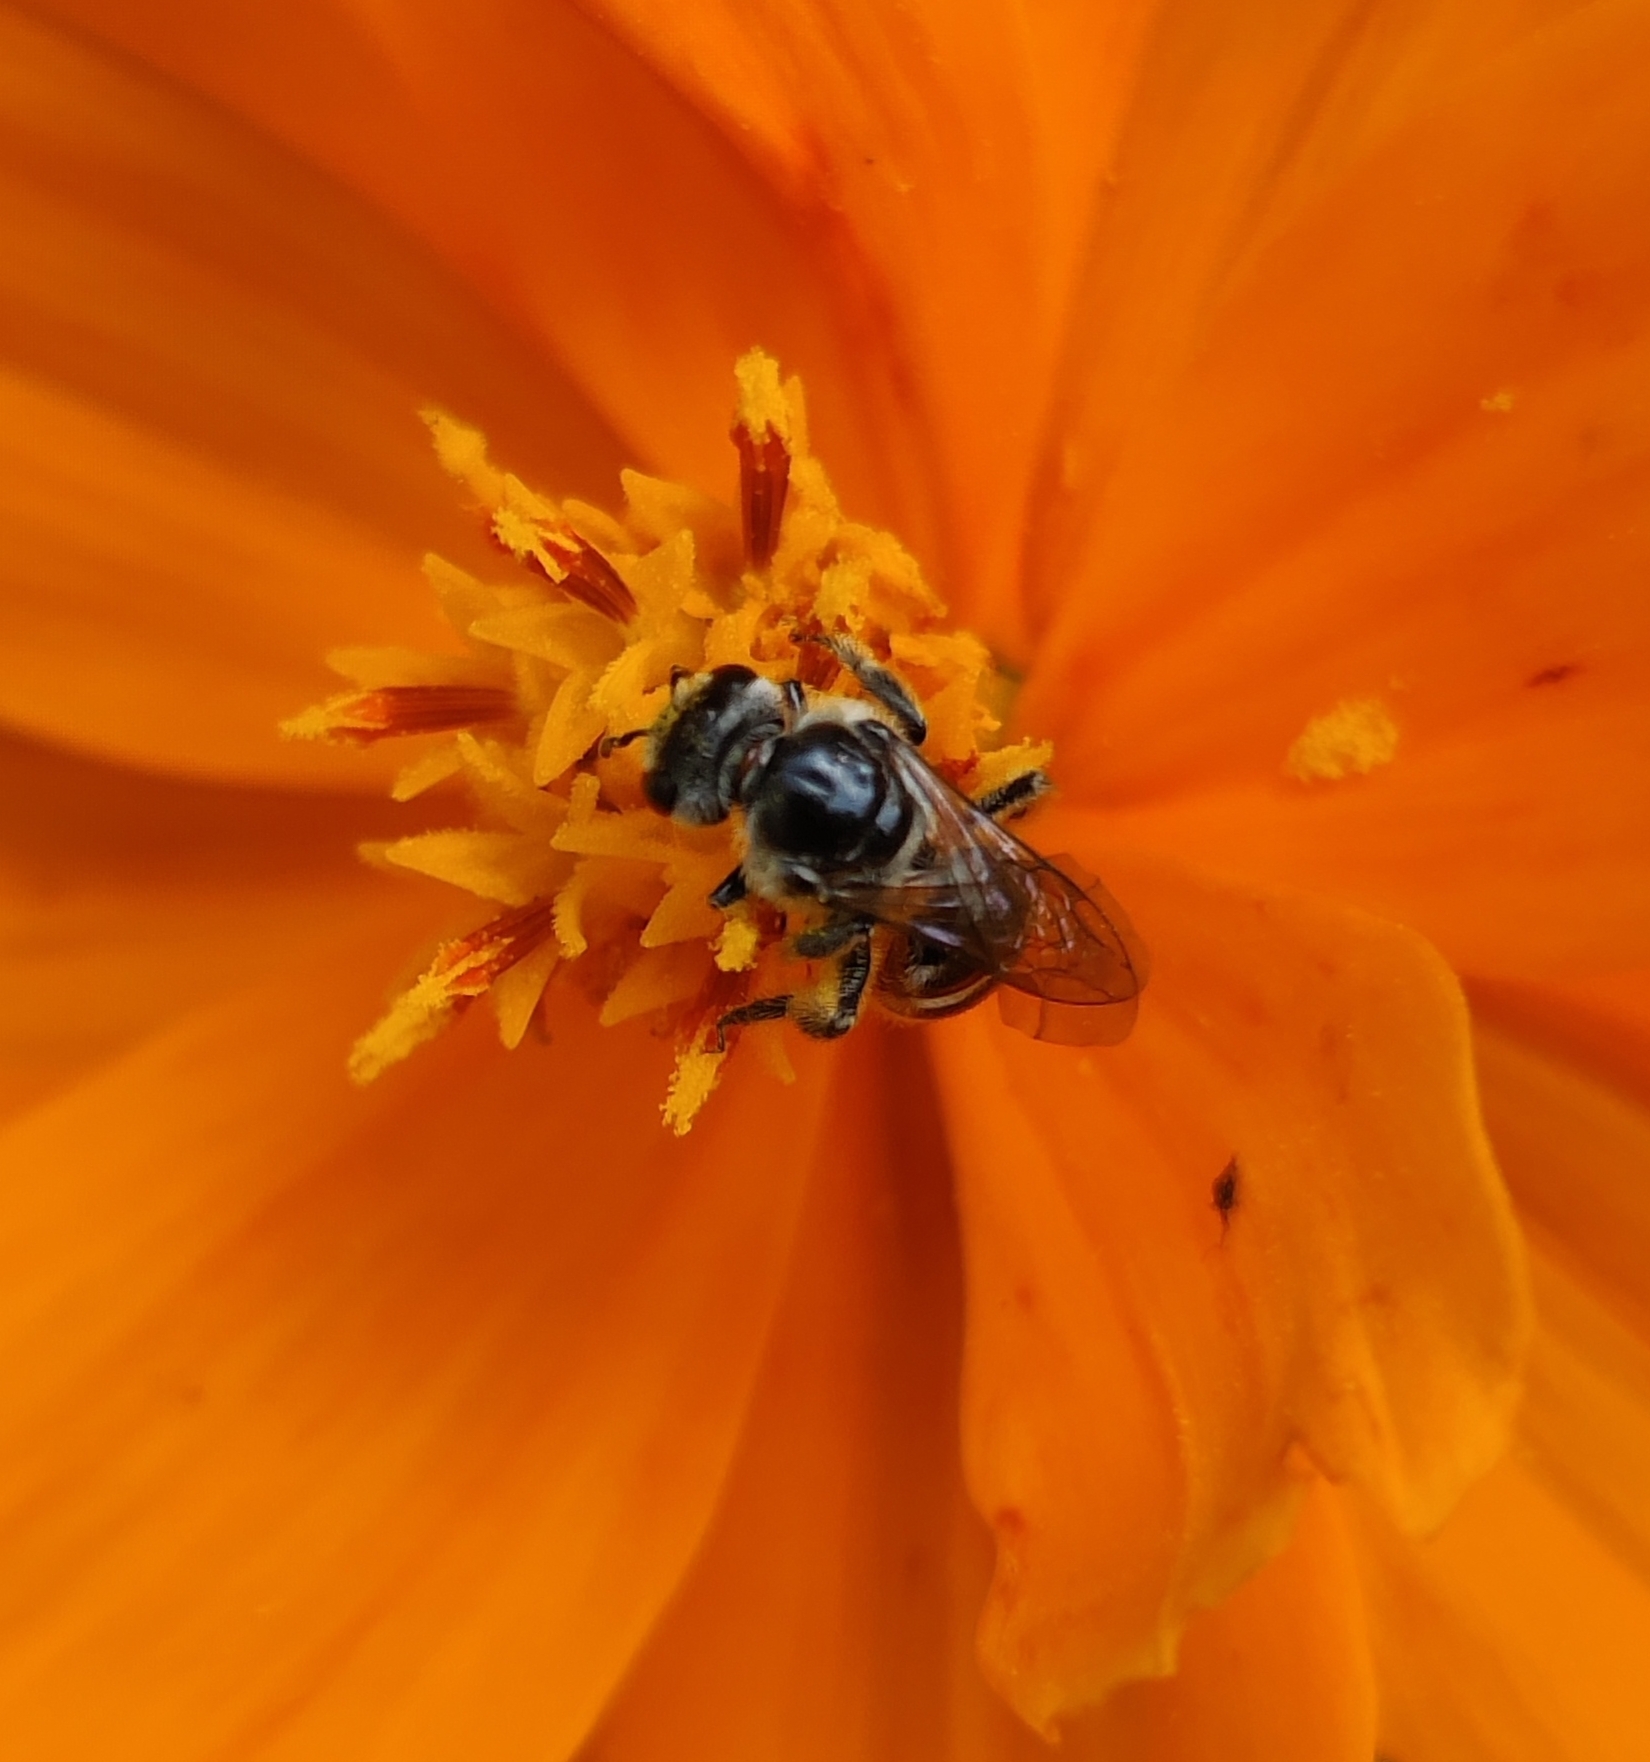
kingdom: Animalia
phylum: Arthropoda
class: Insecta
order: Hymenoptera
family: Halictidae
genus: Lasioglossum
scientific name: Lasioglossum albescens
